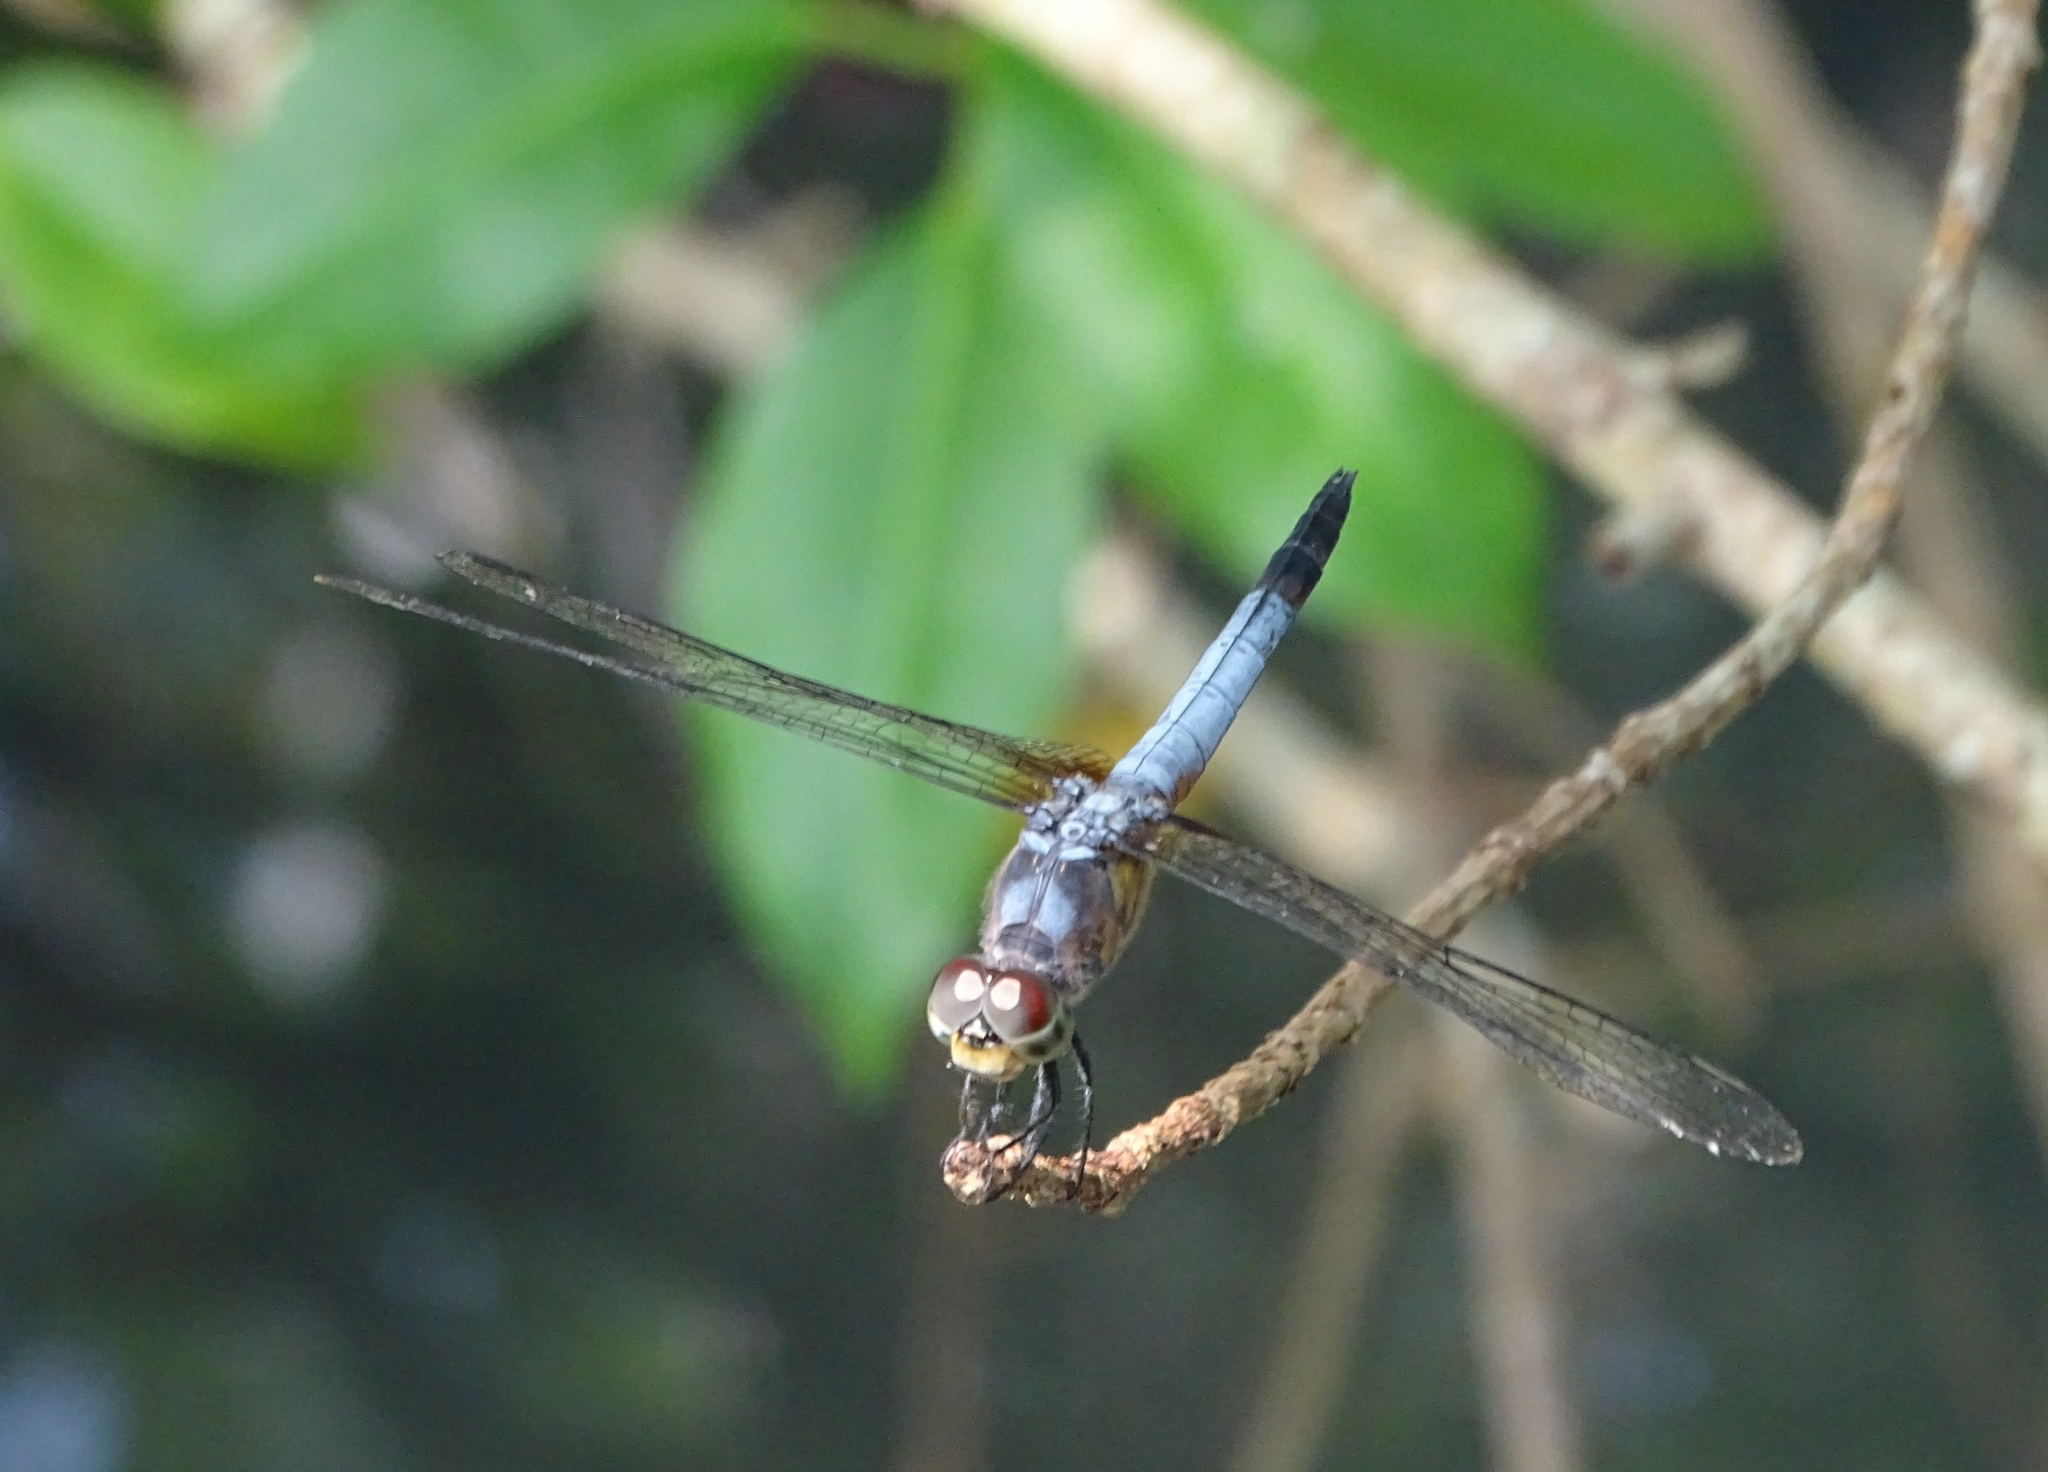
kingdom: Animalia
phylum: Arthropoda
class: Insecta
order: Odonata
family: Libellulidae
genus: Brachydiplax
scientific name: Brachydiplax chalybea
